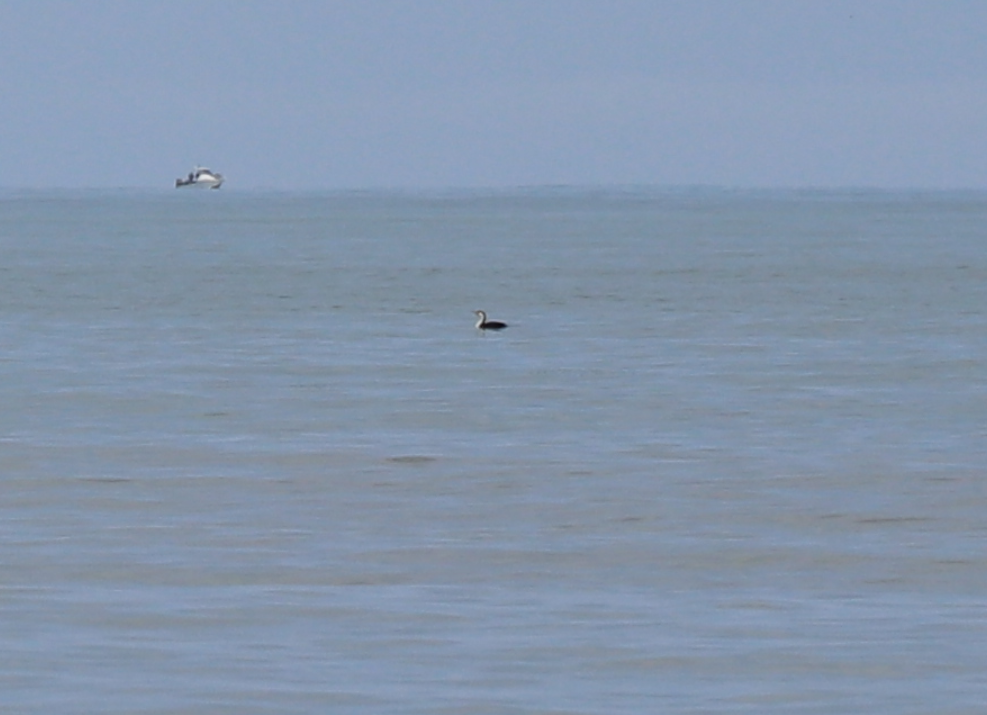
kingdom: Animalia
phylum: Chordata
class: Aves
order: Suliformes
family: Phalacrocoracidae
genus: Phalacrocorax
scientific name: Phalacrocorax varius
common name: Pied cormorant
